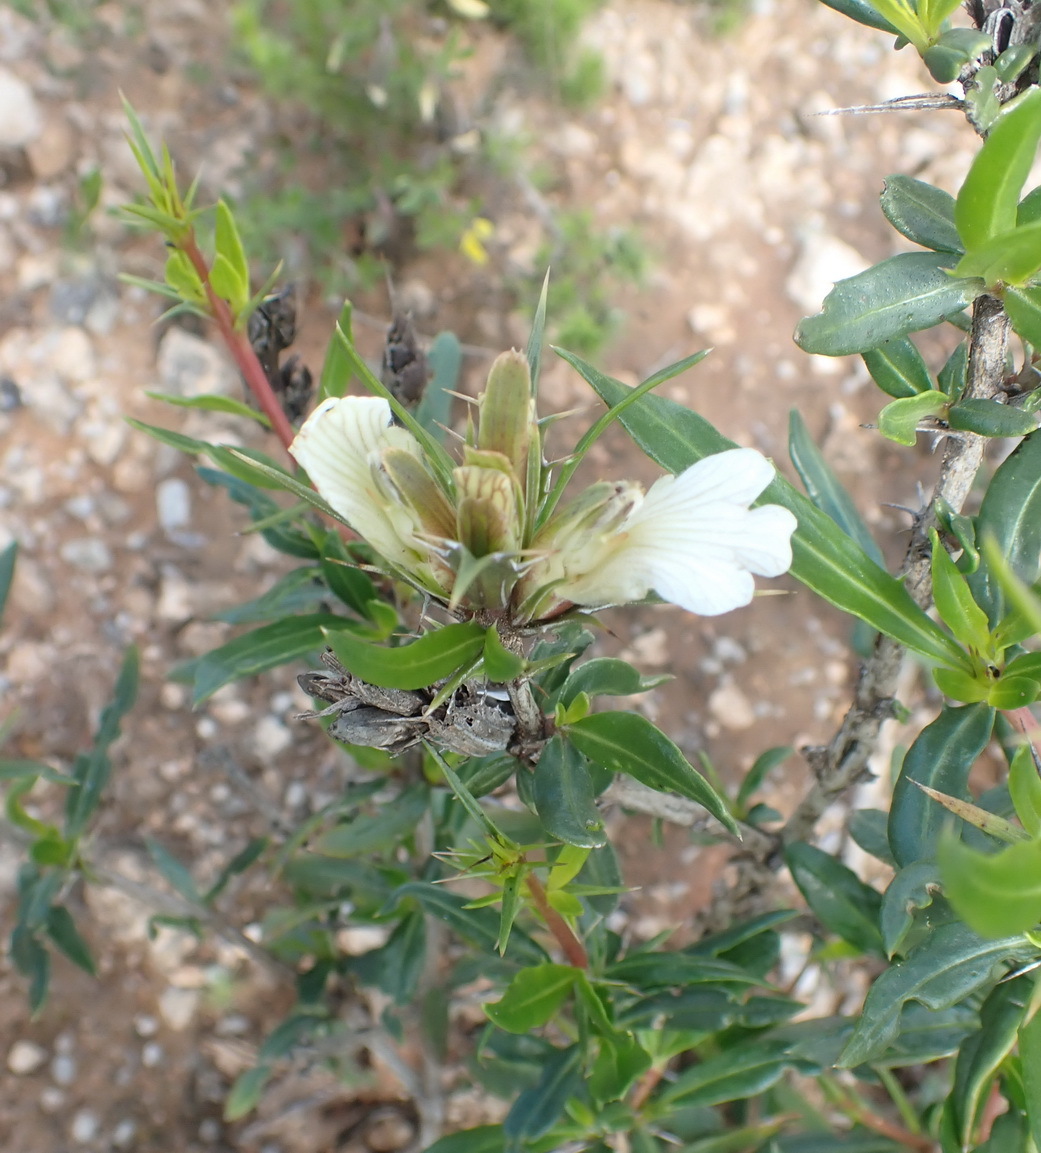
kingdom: Plantae
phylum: Tracheophyta
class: Magnoliopsida
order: Lamiales
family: Acanthaceae
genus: Blepharis
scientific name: Blepharis capensis
